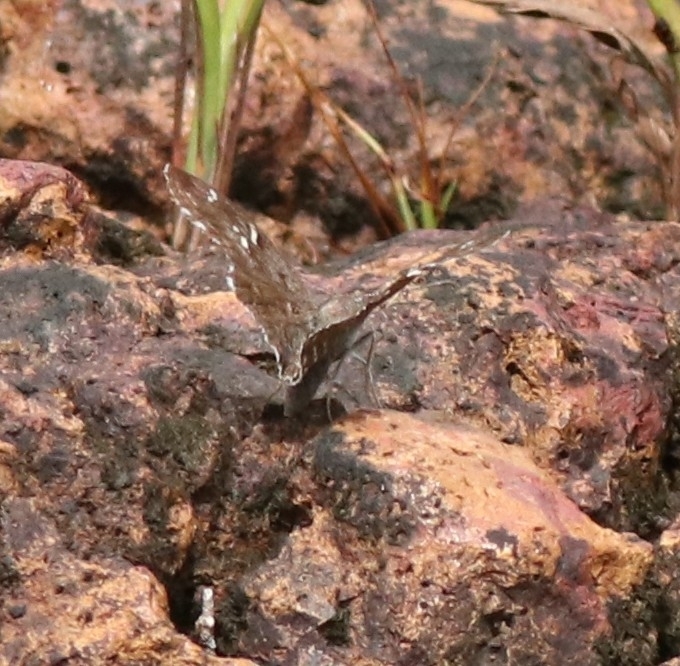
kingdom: Animalia
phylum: Arthropoda
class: Insecta
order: Lepidoptera
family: Hesperiidae
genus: Sarangesa
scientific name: Sarangesa purendra
